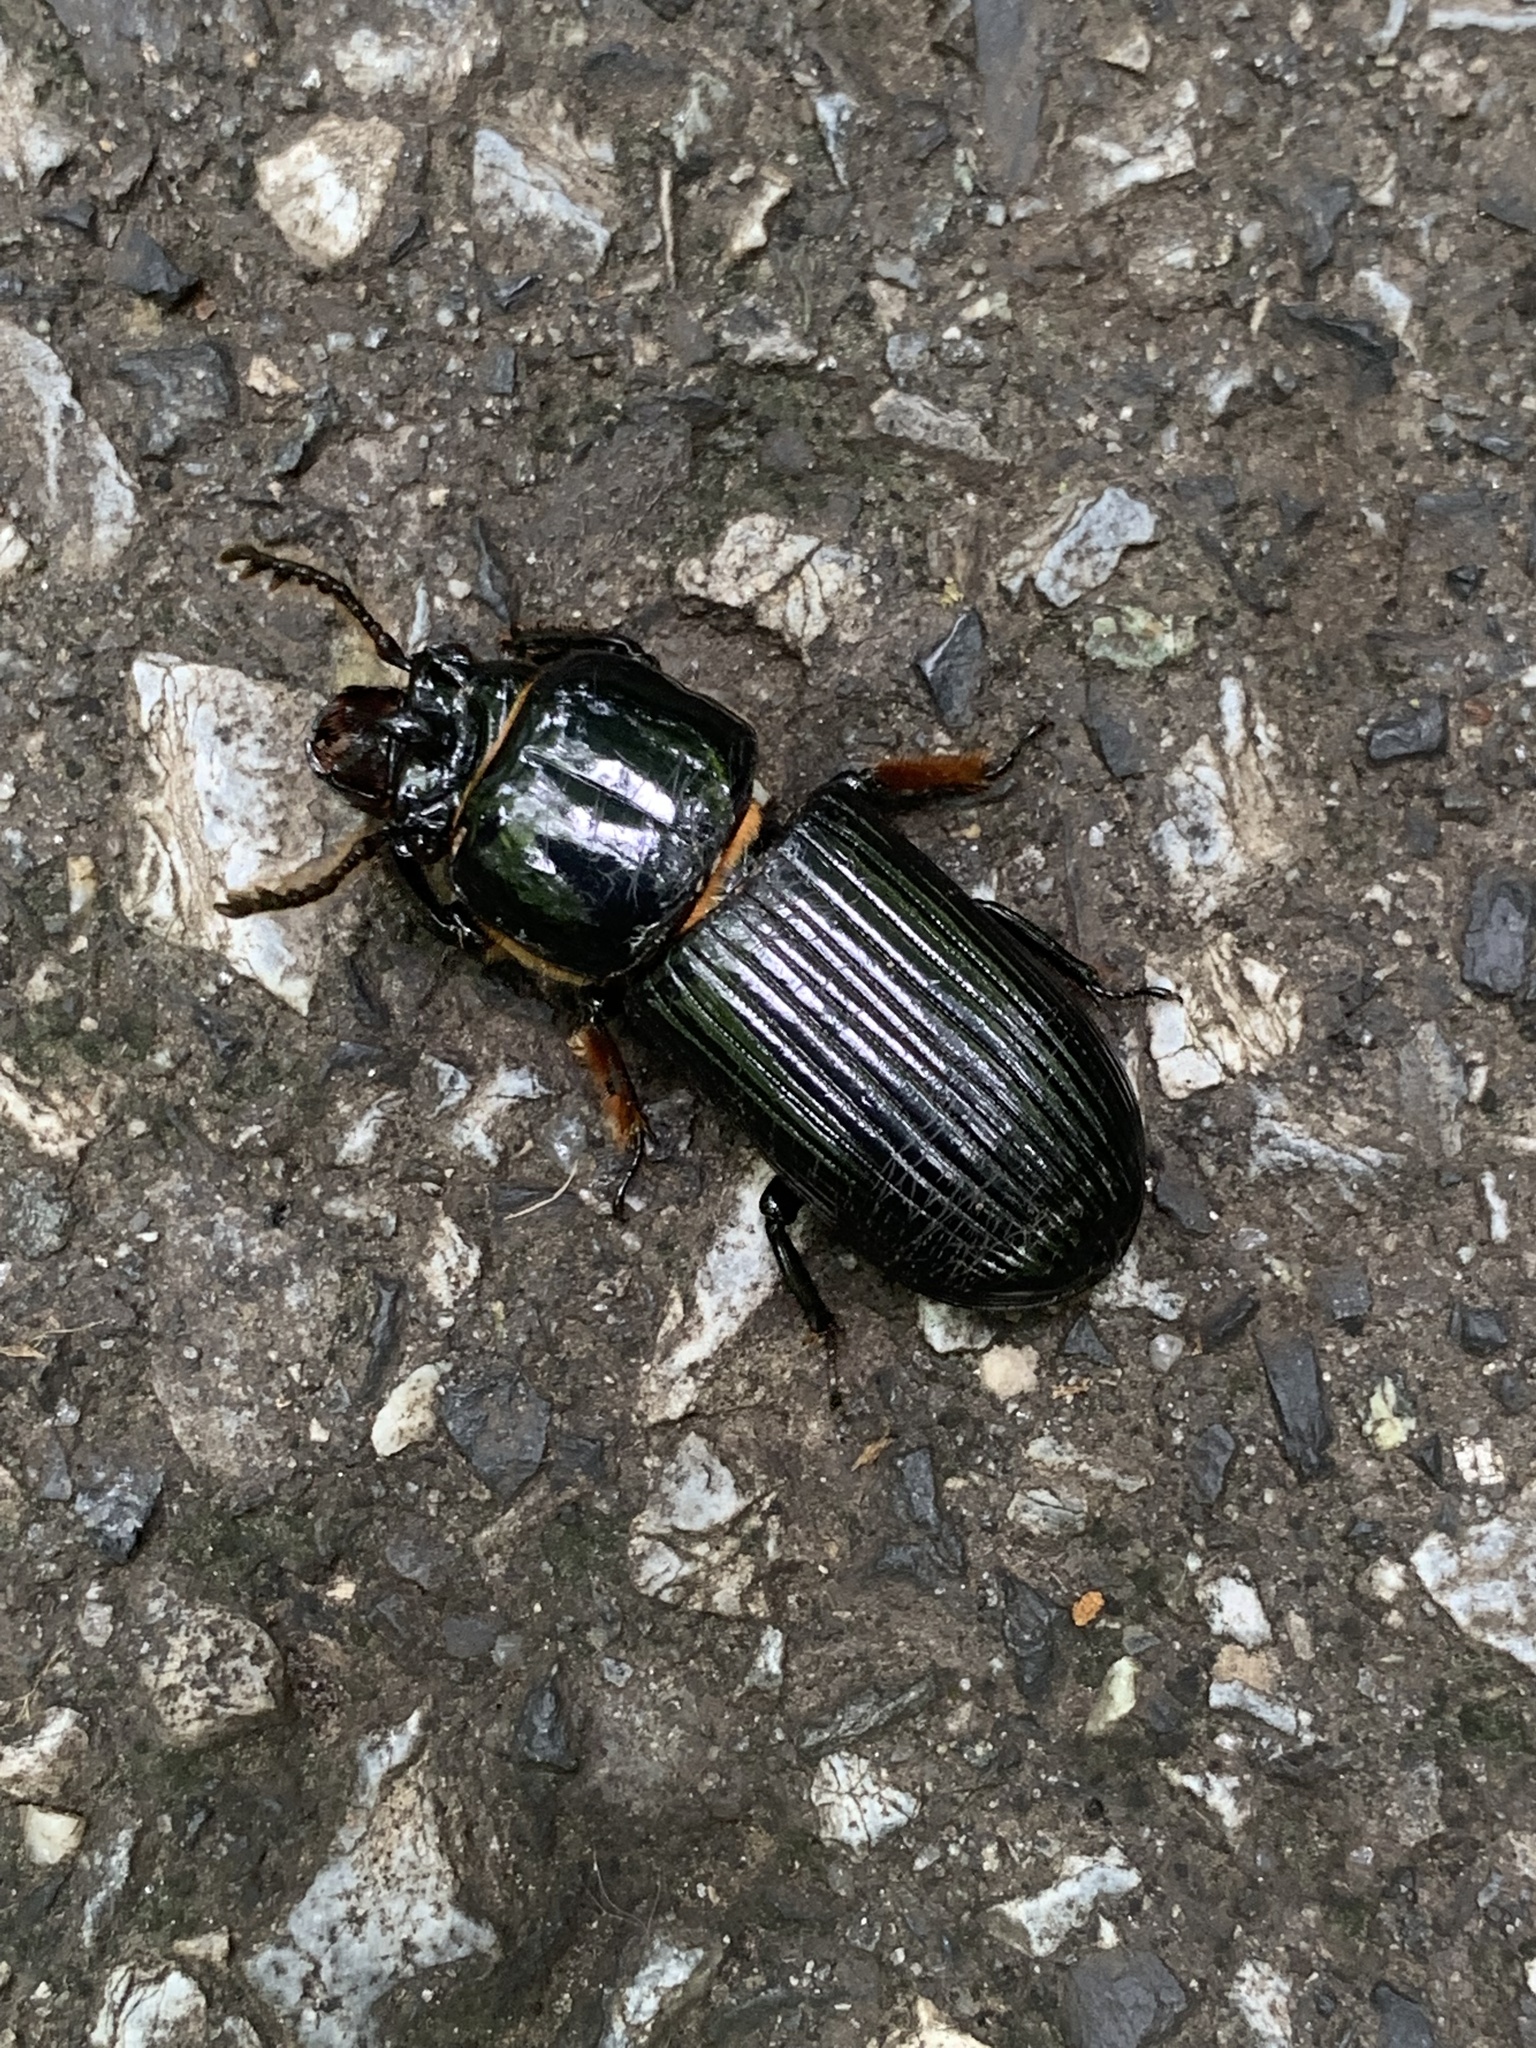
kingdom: Animalia
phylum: Arthropoda
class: Insecta
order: Coleoptera
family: Passalidae
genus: Odontotaenius
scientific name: Odontotaenius disjunctus
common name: Patent leather beetle
